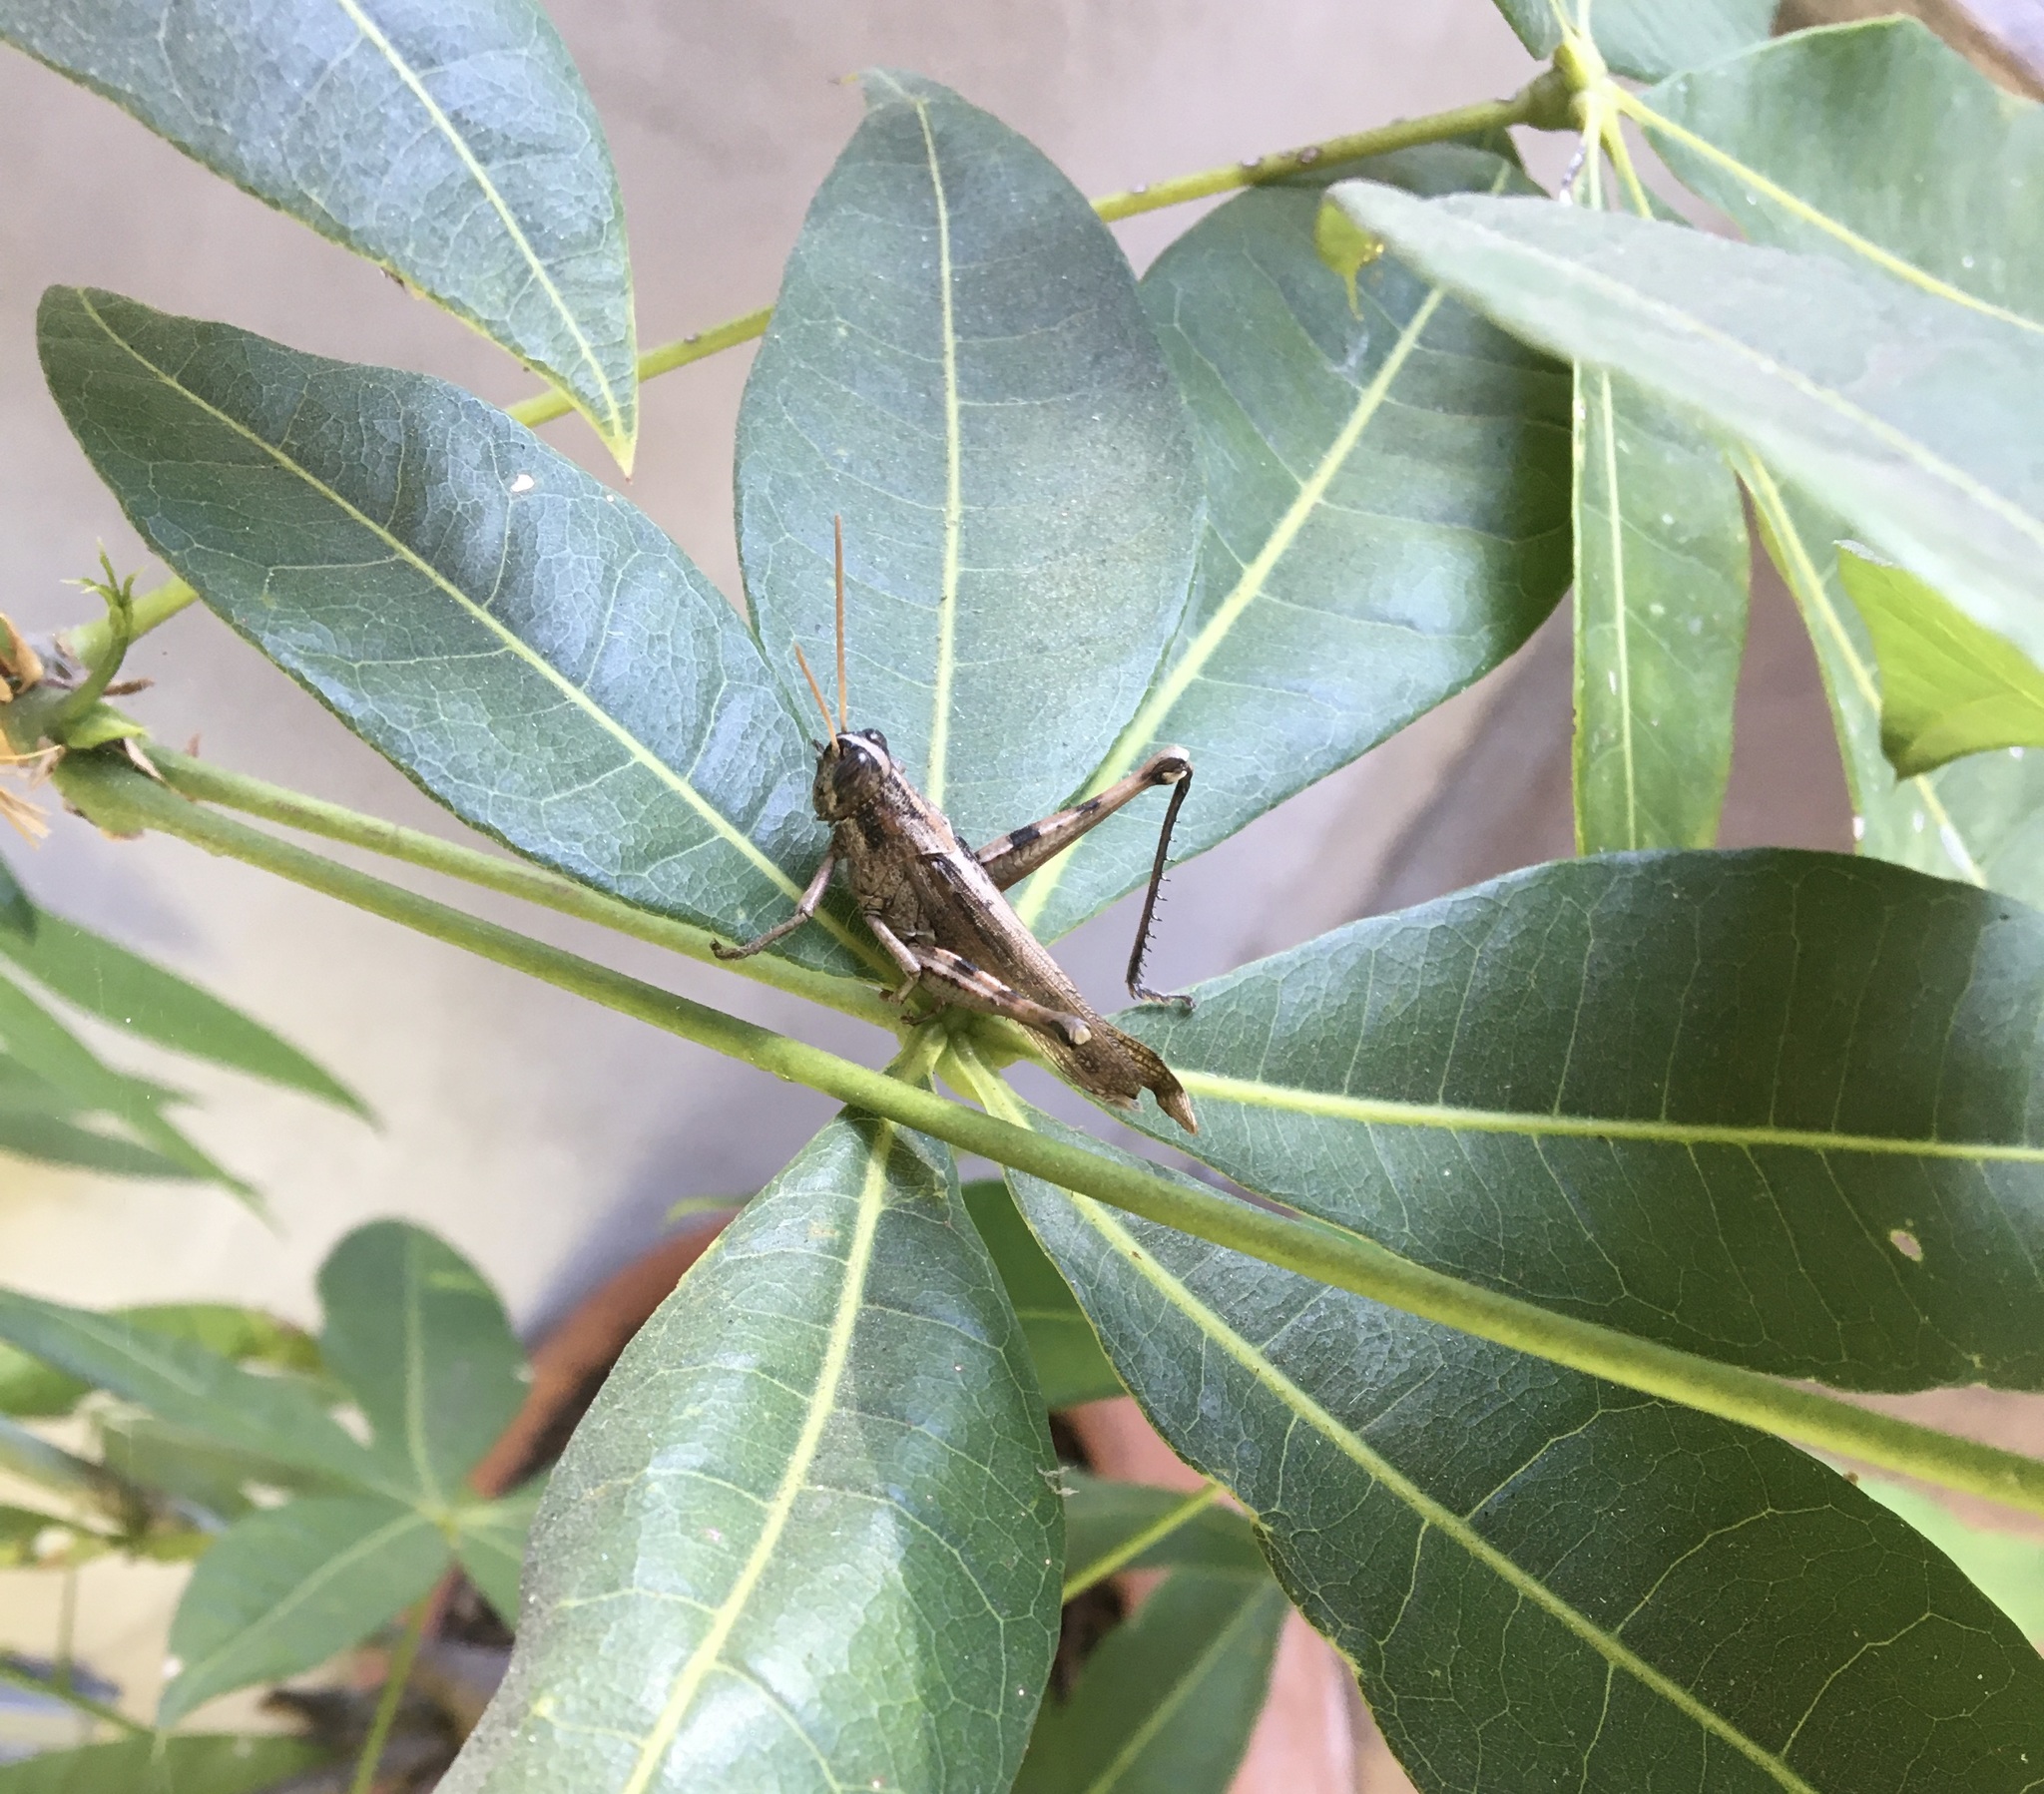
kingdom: Animalia
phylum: Arthropoda
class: Insecta
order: Orthoptera
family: Acrididae
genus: Schistocerca
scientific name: Schistocerca nitens
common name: Vagrant grasshopper
